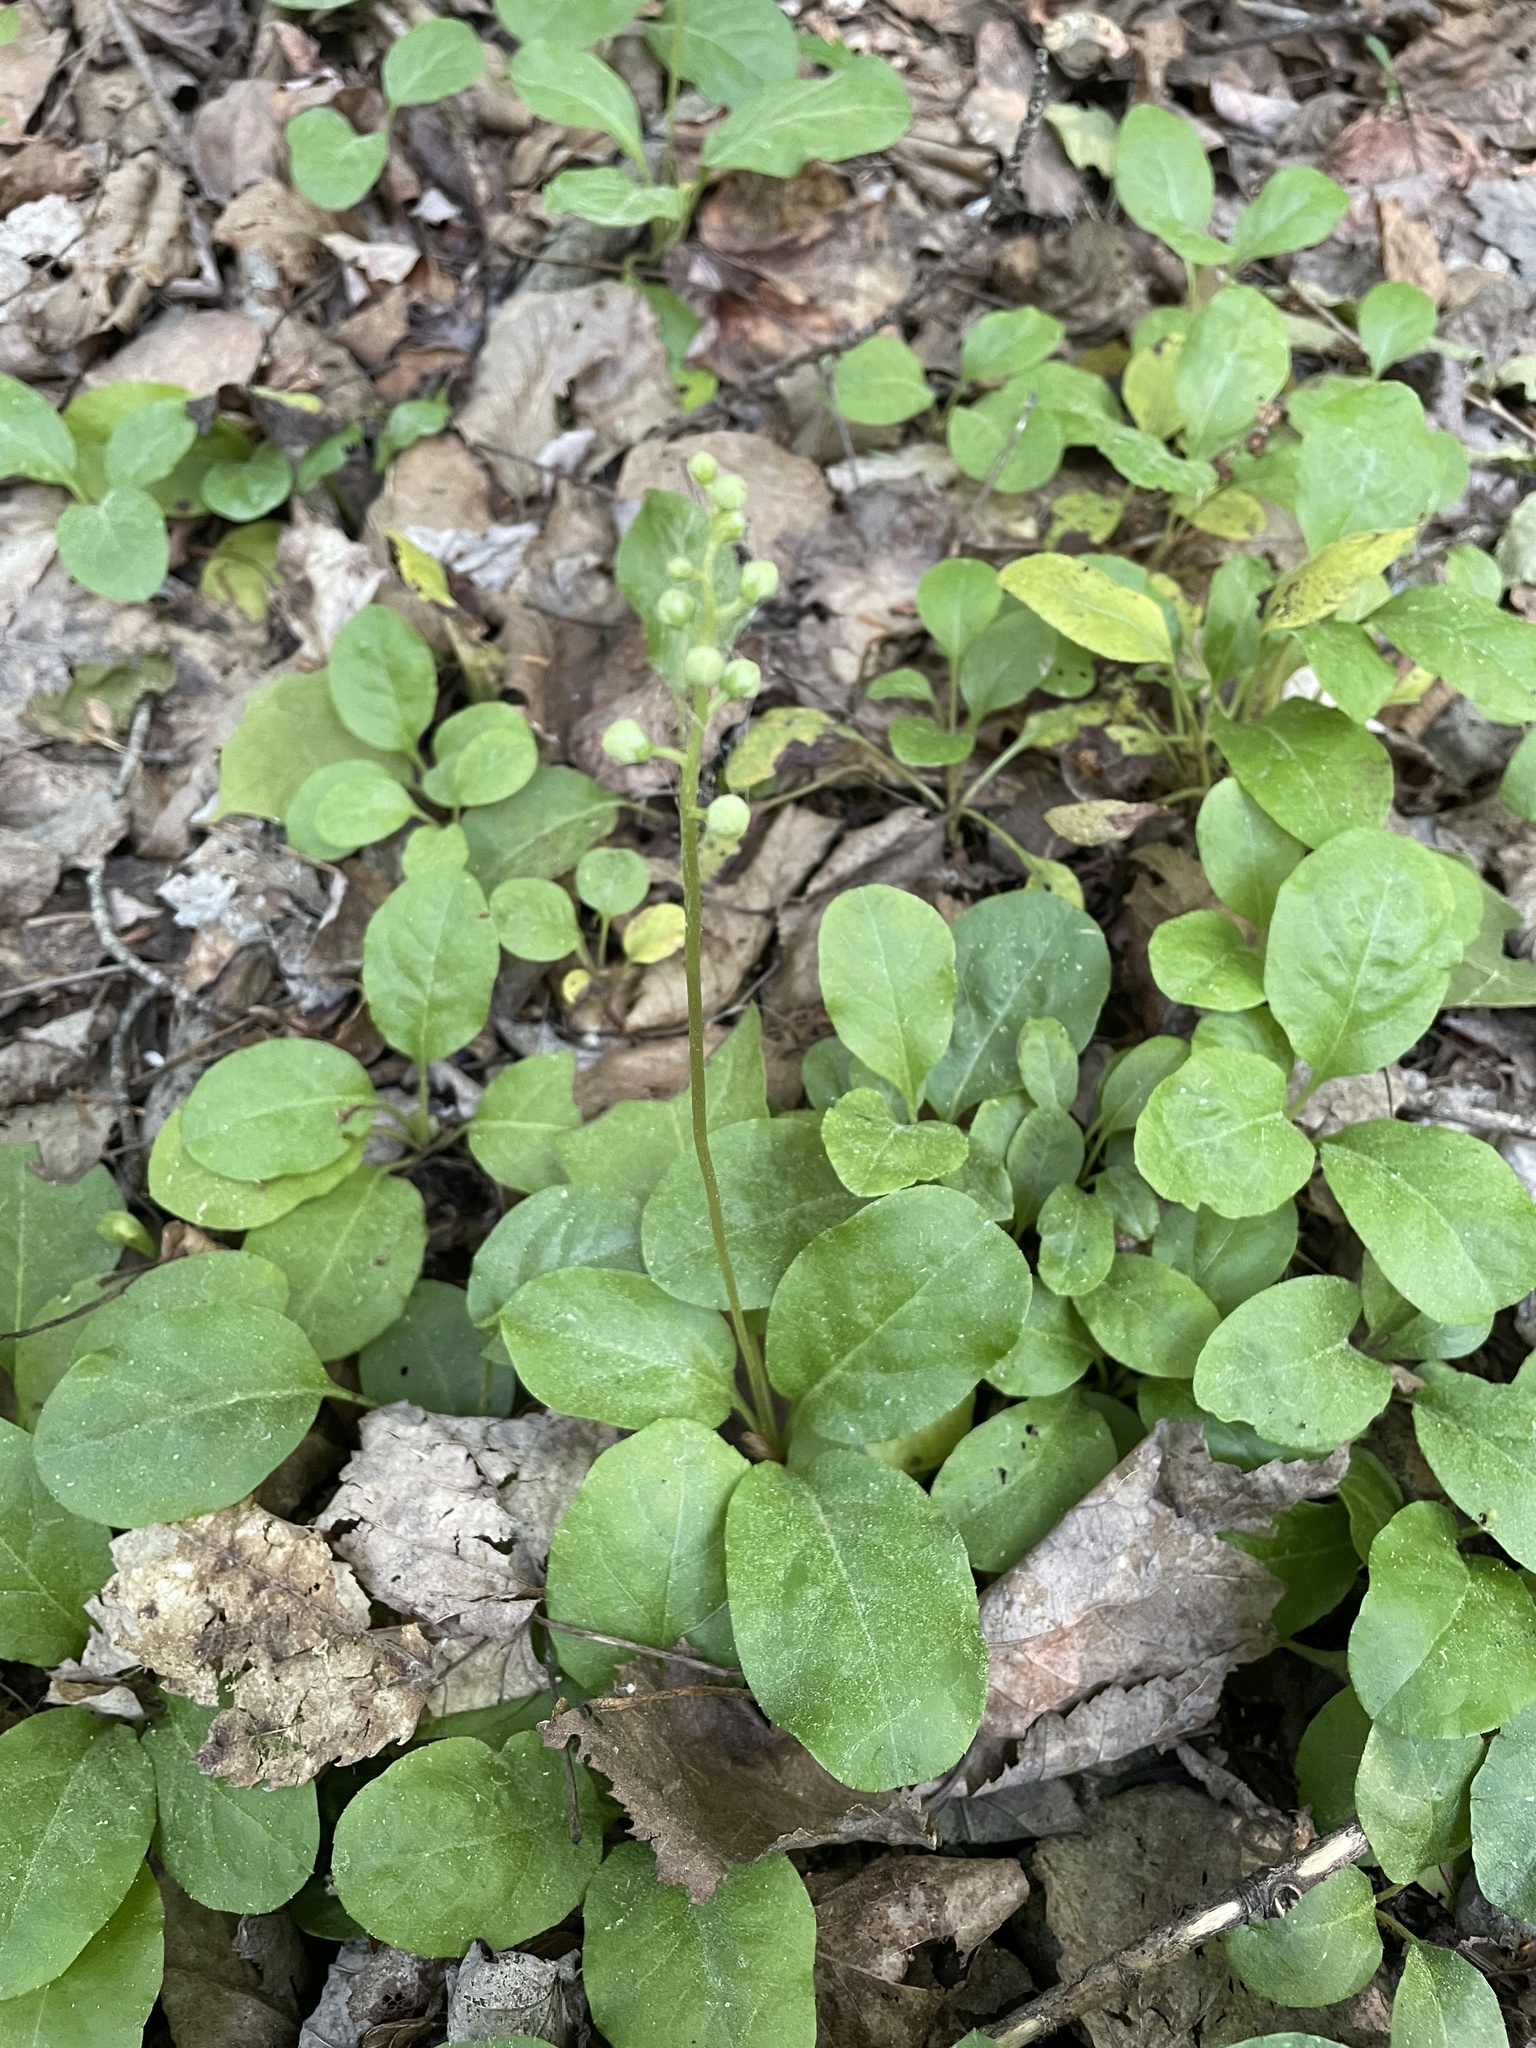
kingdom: Plantae
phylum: Tracheophyta
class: Magnoliopsida
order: Ericales
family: Ericaceae
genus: Pyrola
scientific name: Pyrola elliptica
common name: Shinleaf
